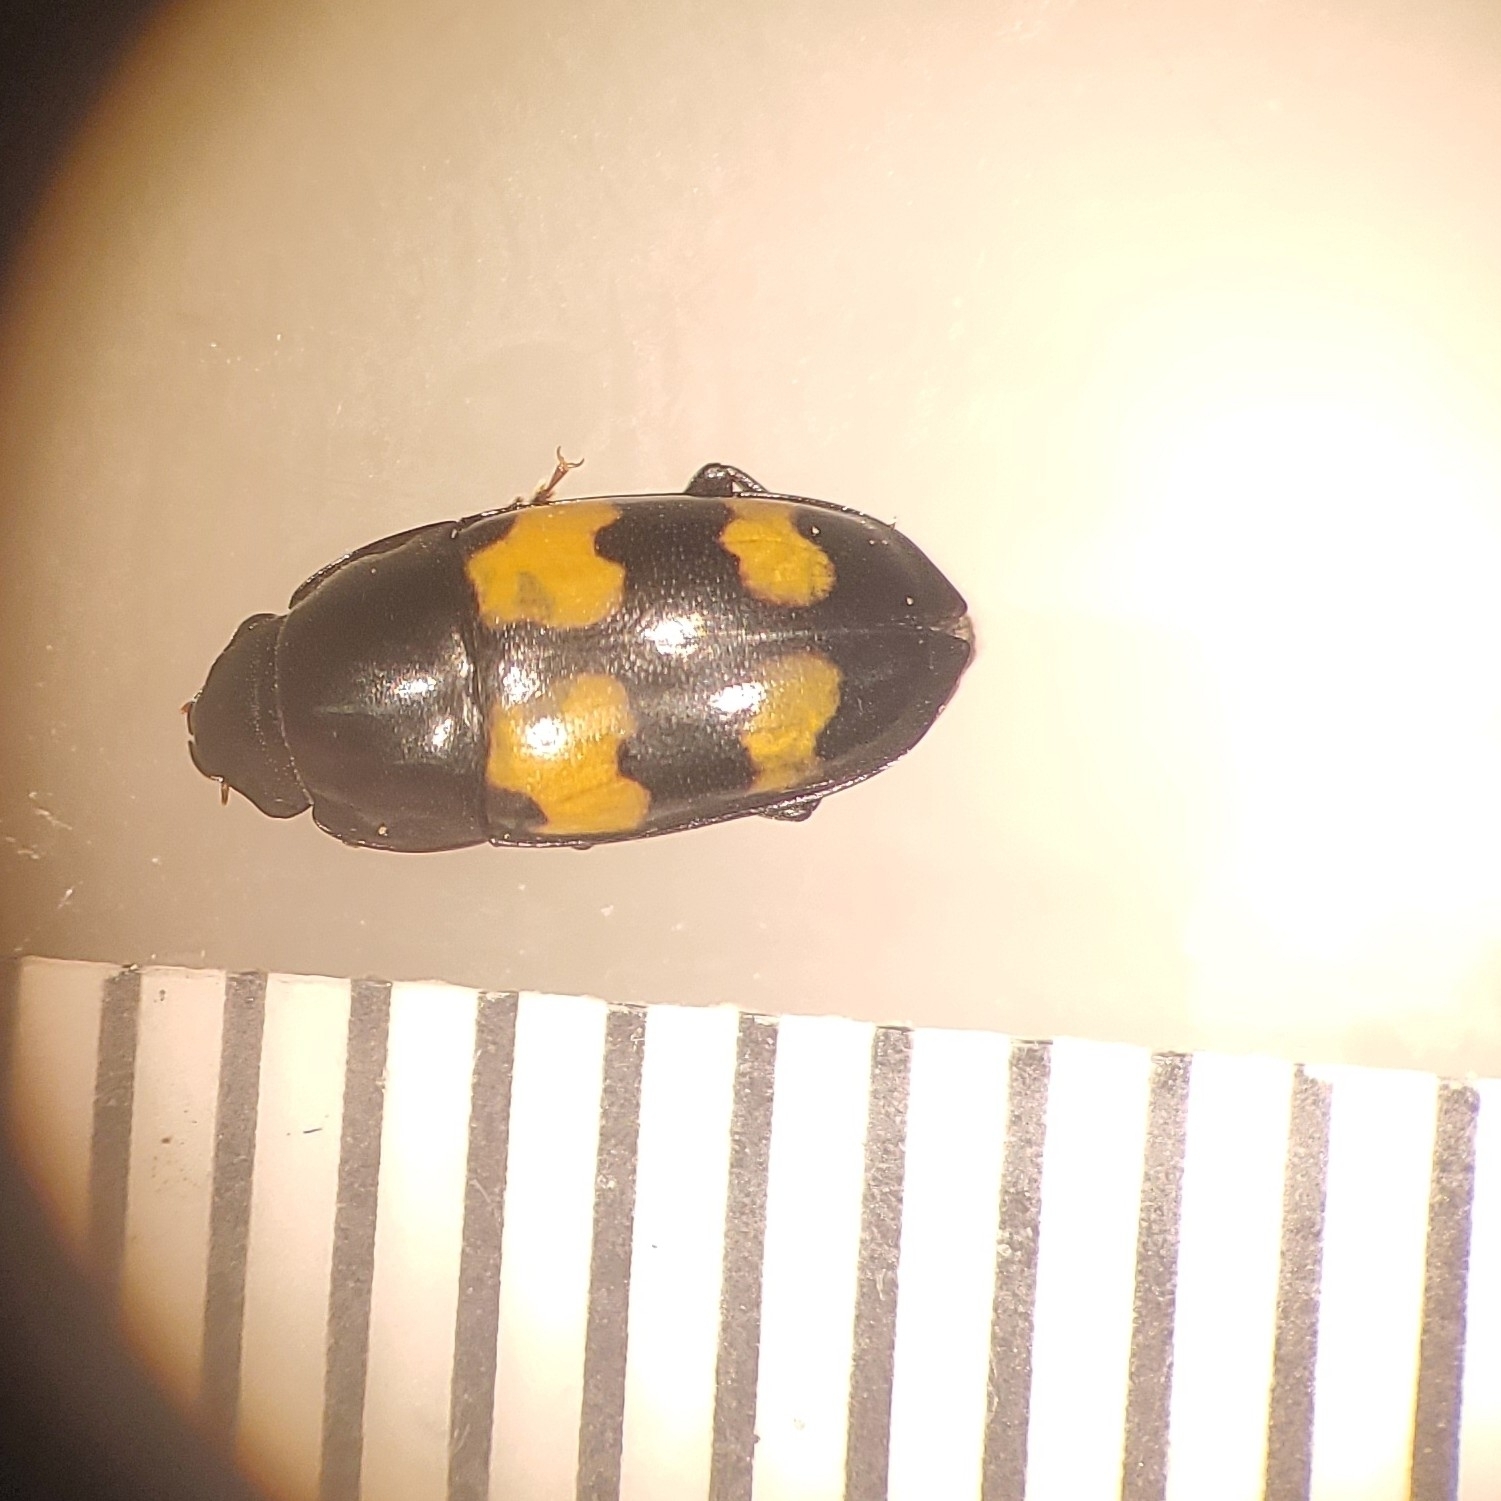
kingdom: Animalia
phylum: Arthropoda
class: Insecta
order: Coleoptera
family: Nitidulidae
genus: Glischrochilus
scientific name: Glischrochilus fasciatus
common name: Picnic beetle
